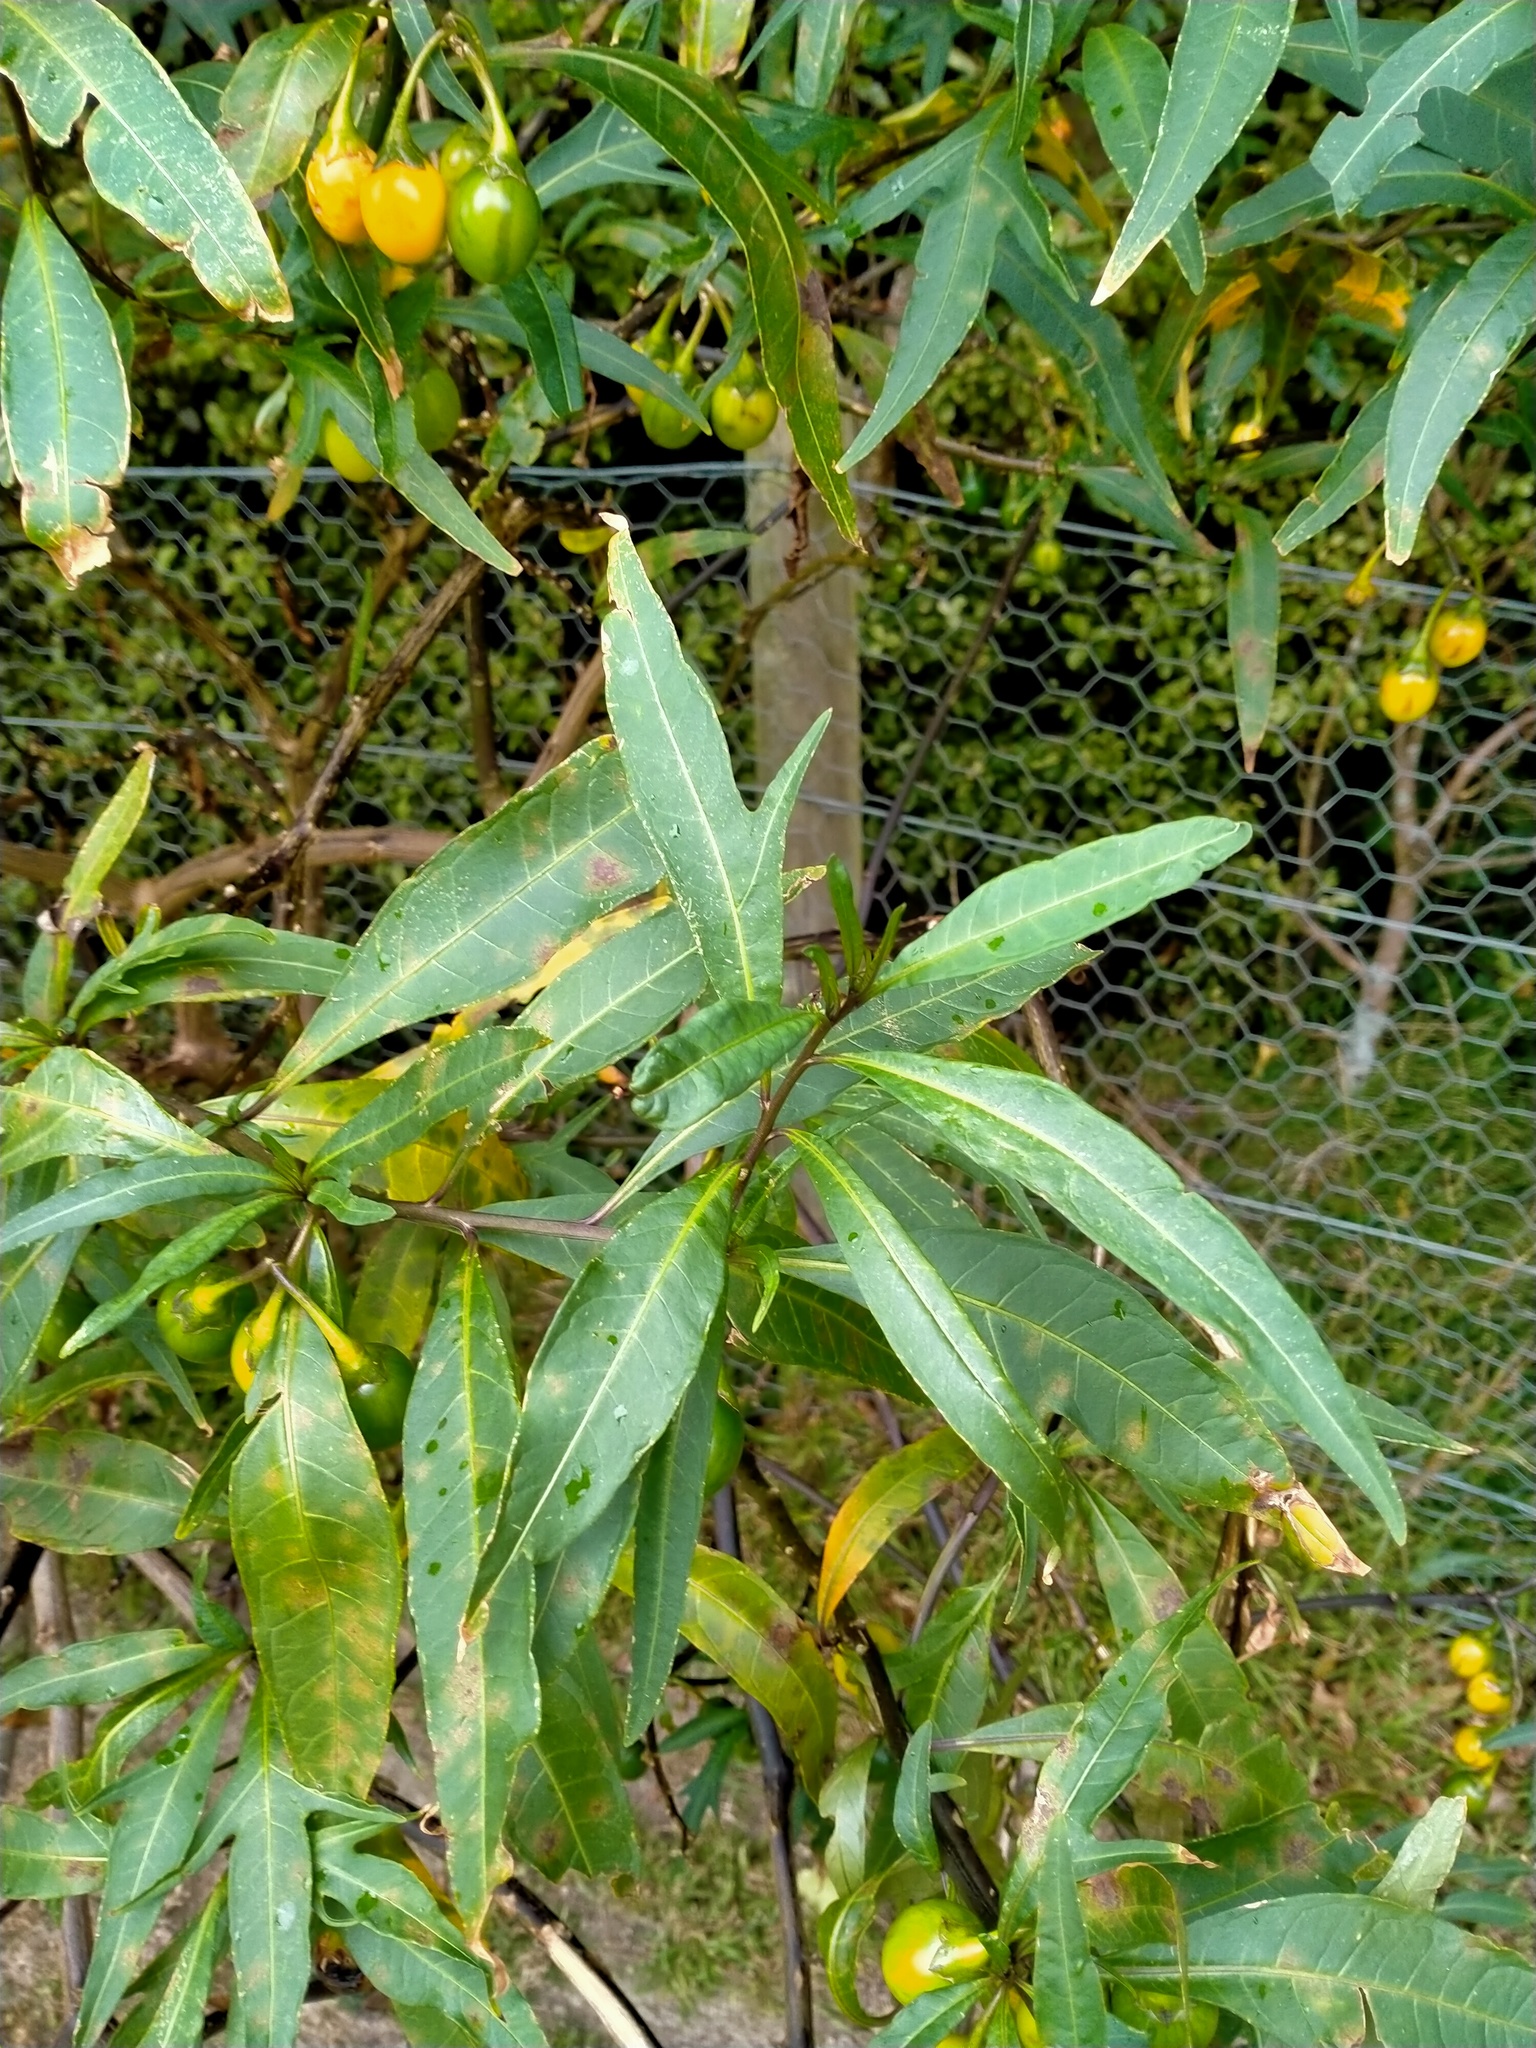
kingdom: Plantae
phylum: Tracheophyta
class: Magnoliopsida
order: Solanales
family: Solanaceae
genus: Solanum
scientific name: Solanum
